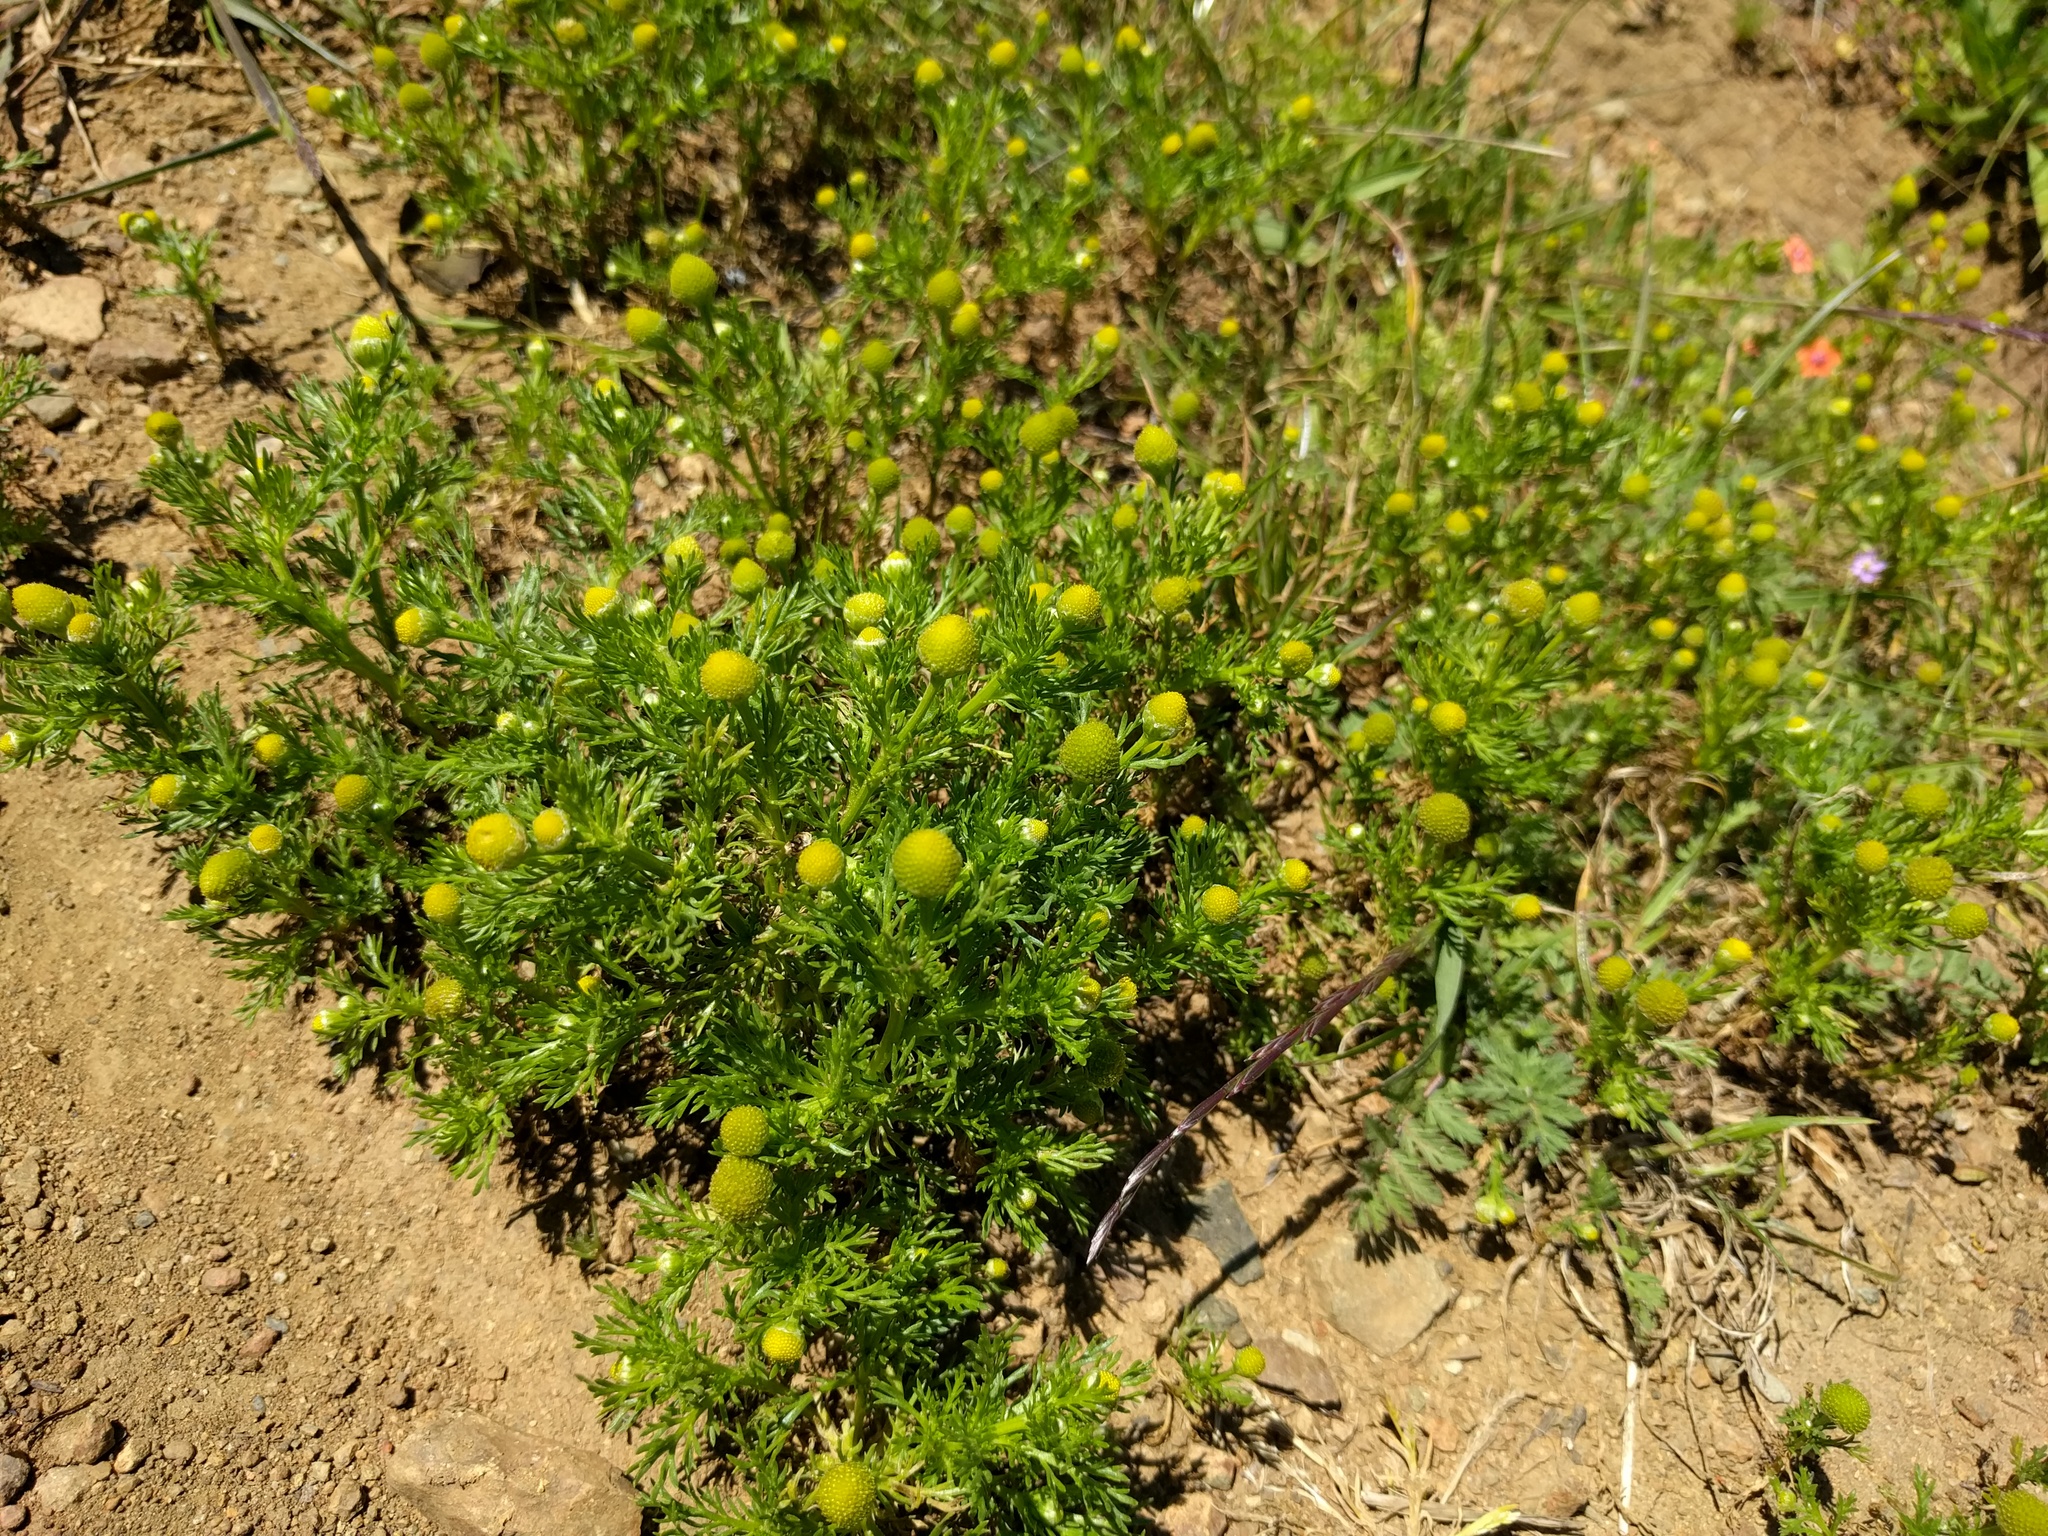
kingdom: Plantae
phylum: Tracheophyta
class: Magnoliopsida
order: Asterales
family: Asteraceae
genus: Matricaria
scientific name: Matricaria discoidea
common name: Disc mayweed
